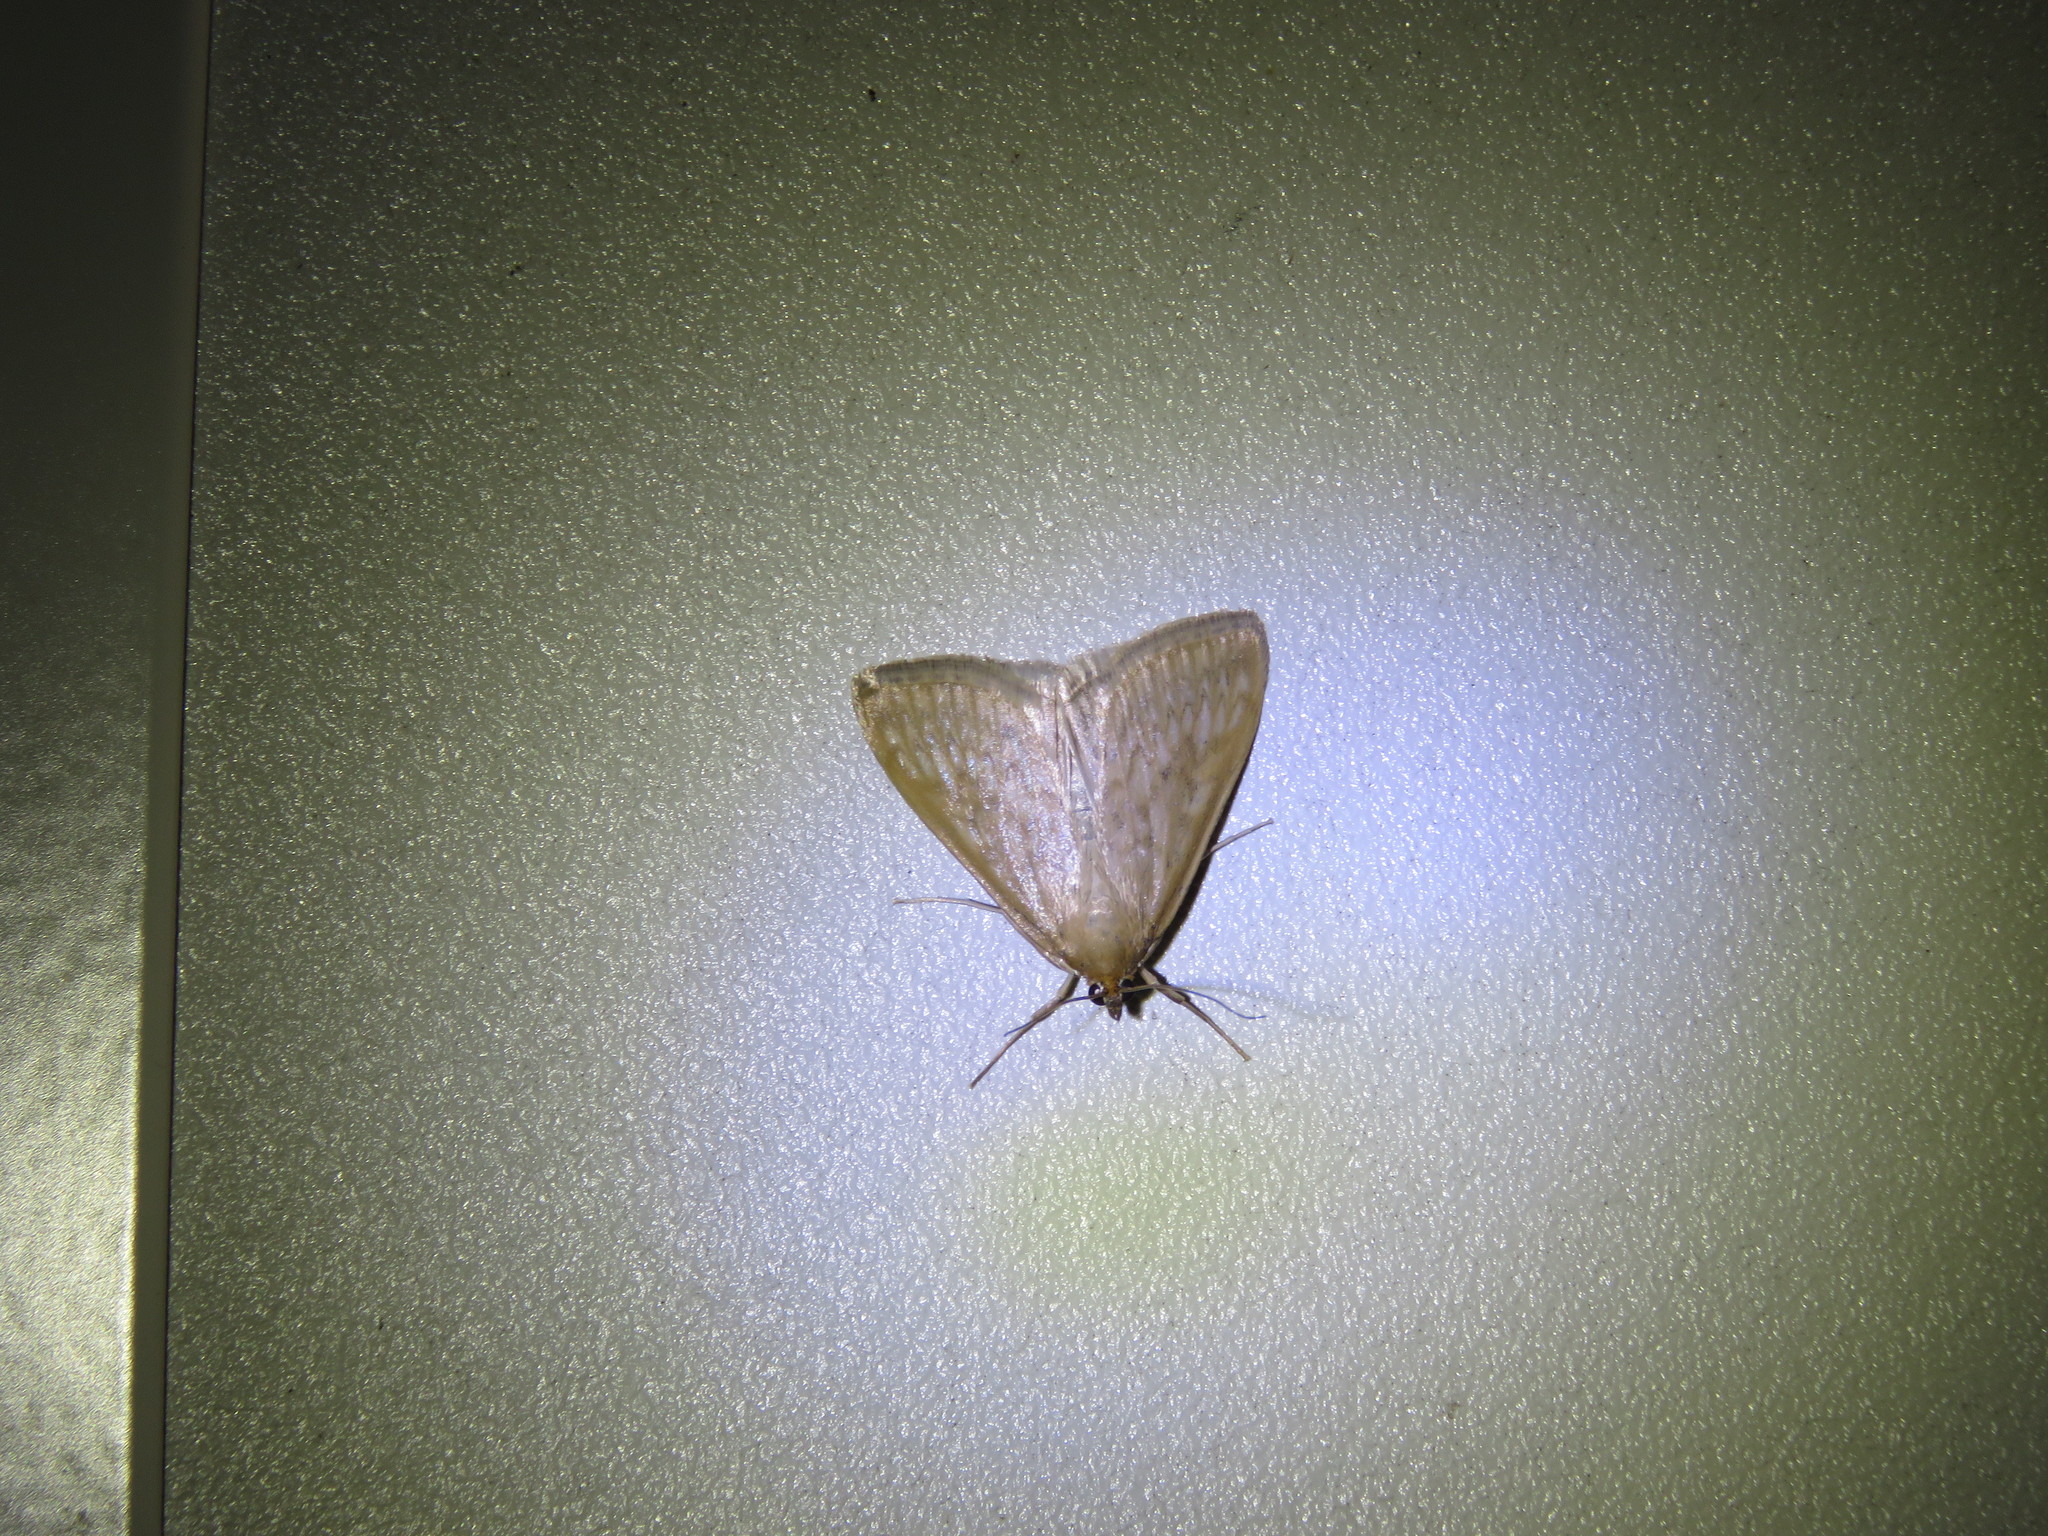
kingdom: Animalia
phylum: Arthropoda
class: Insecta
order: Lepidoptera
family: Crambidae
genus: Sitochroa
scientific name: Sitochroa chortalis
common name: Dimorphic sitochroa moth
